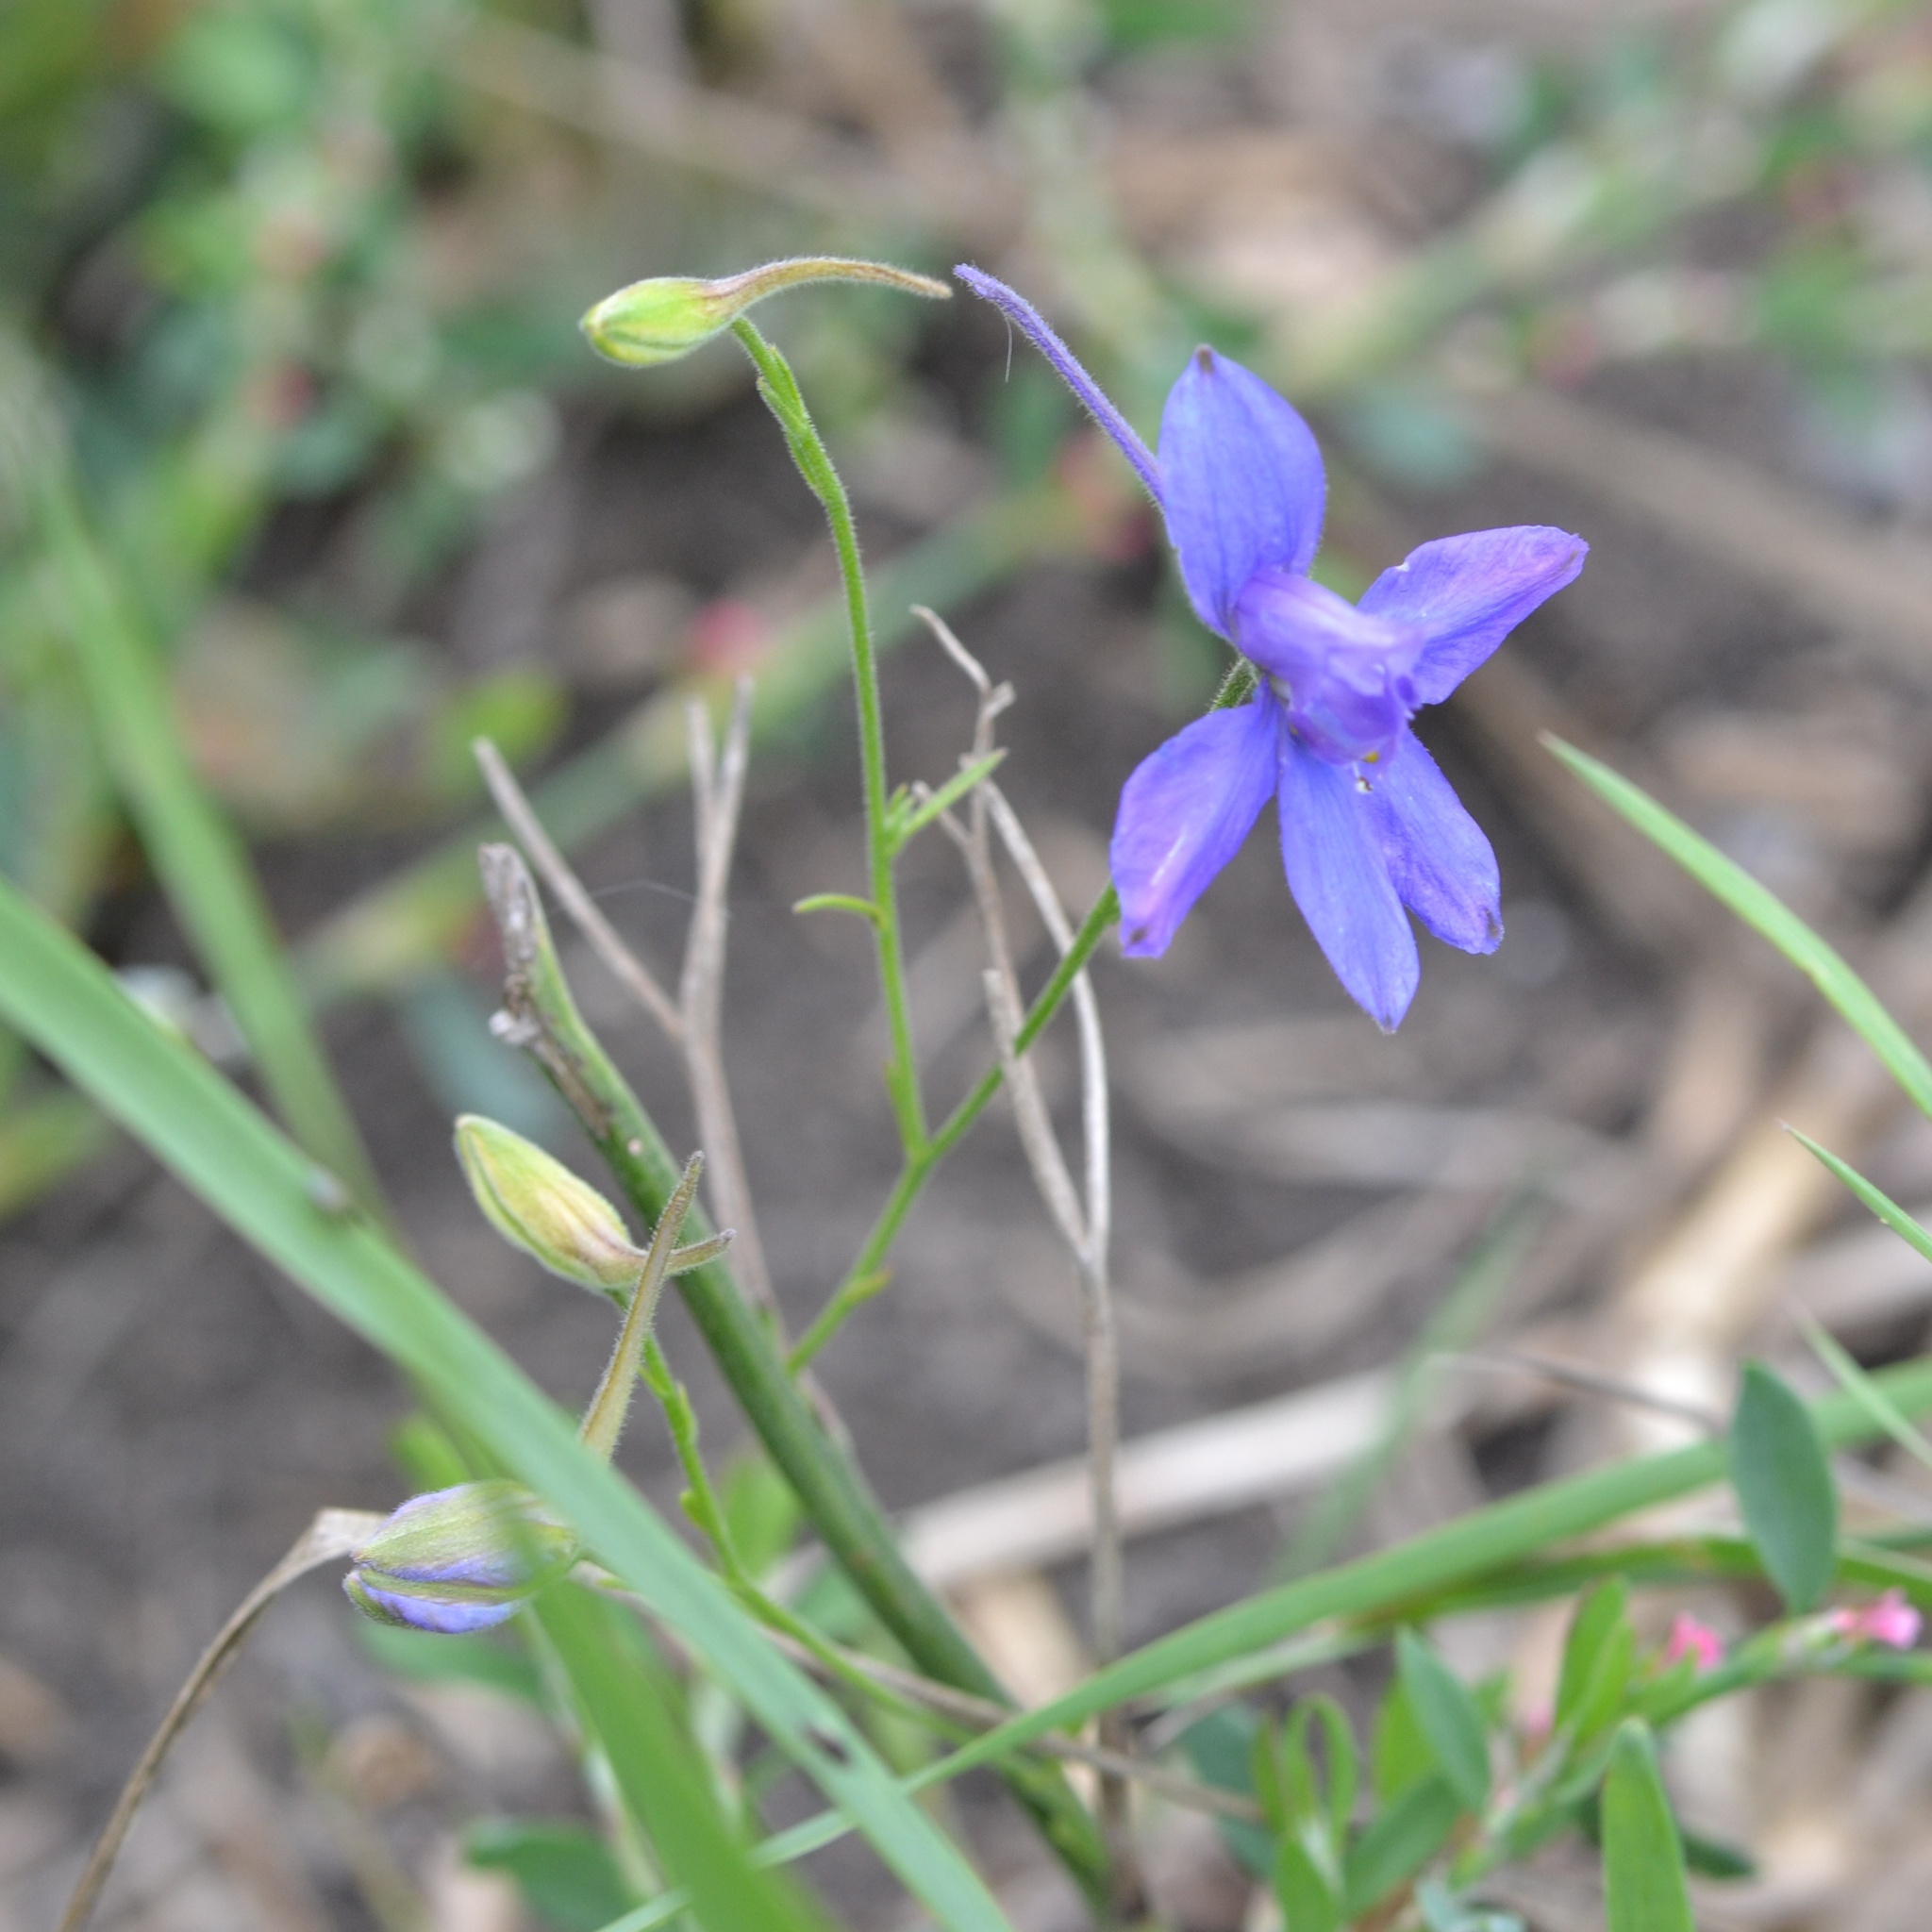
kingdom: Plantae
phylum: Tracheophyta
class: Magnoliopsida
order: Ranunculales
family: Ranunculaceae
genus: Delphinium
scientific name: Delphinium consolida
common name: Branching larkspur
